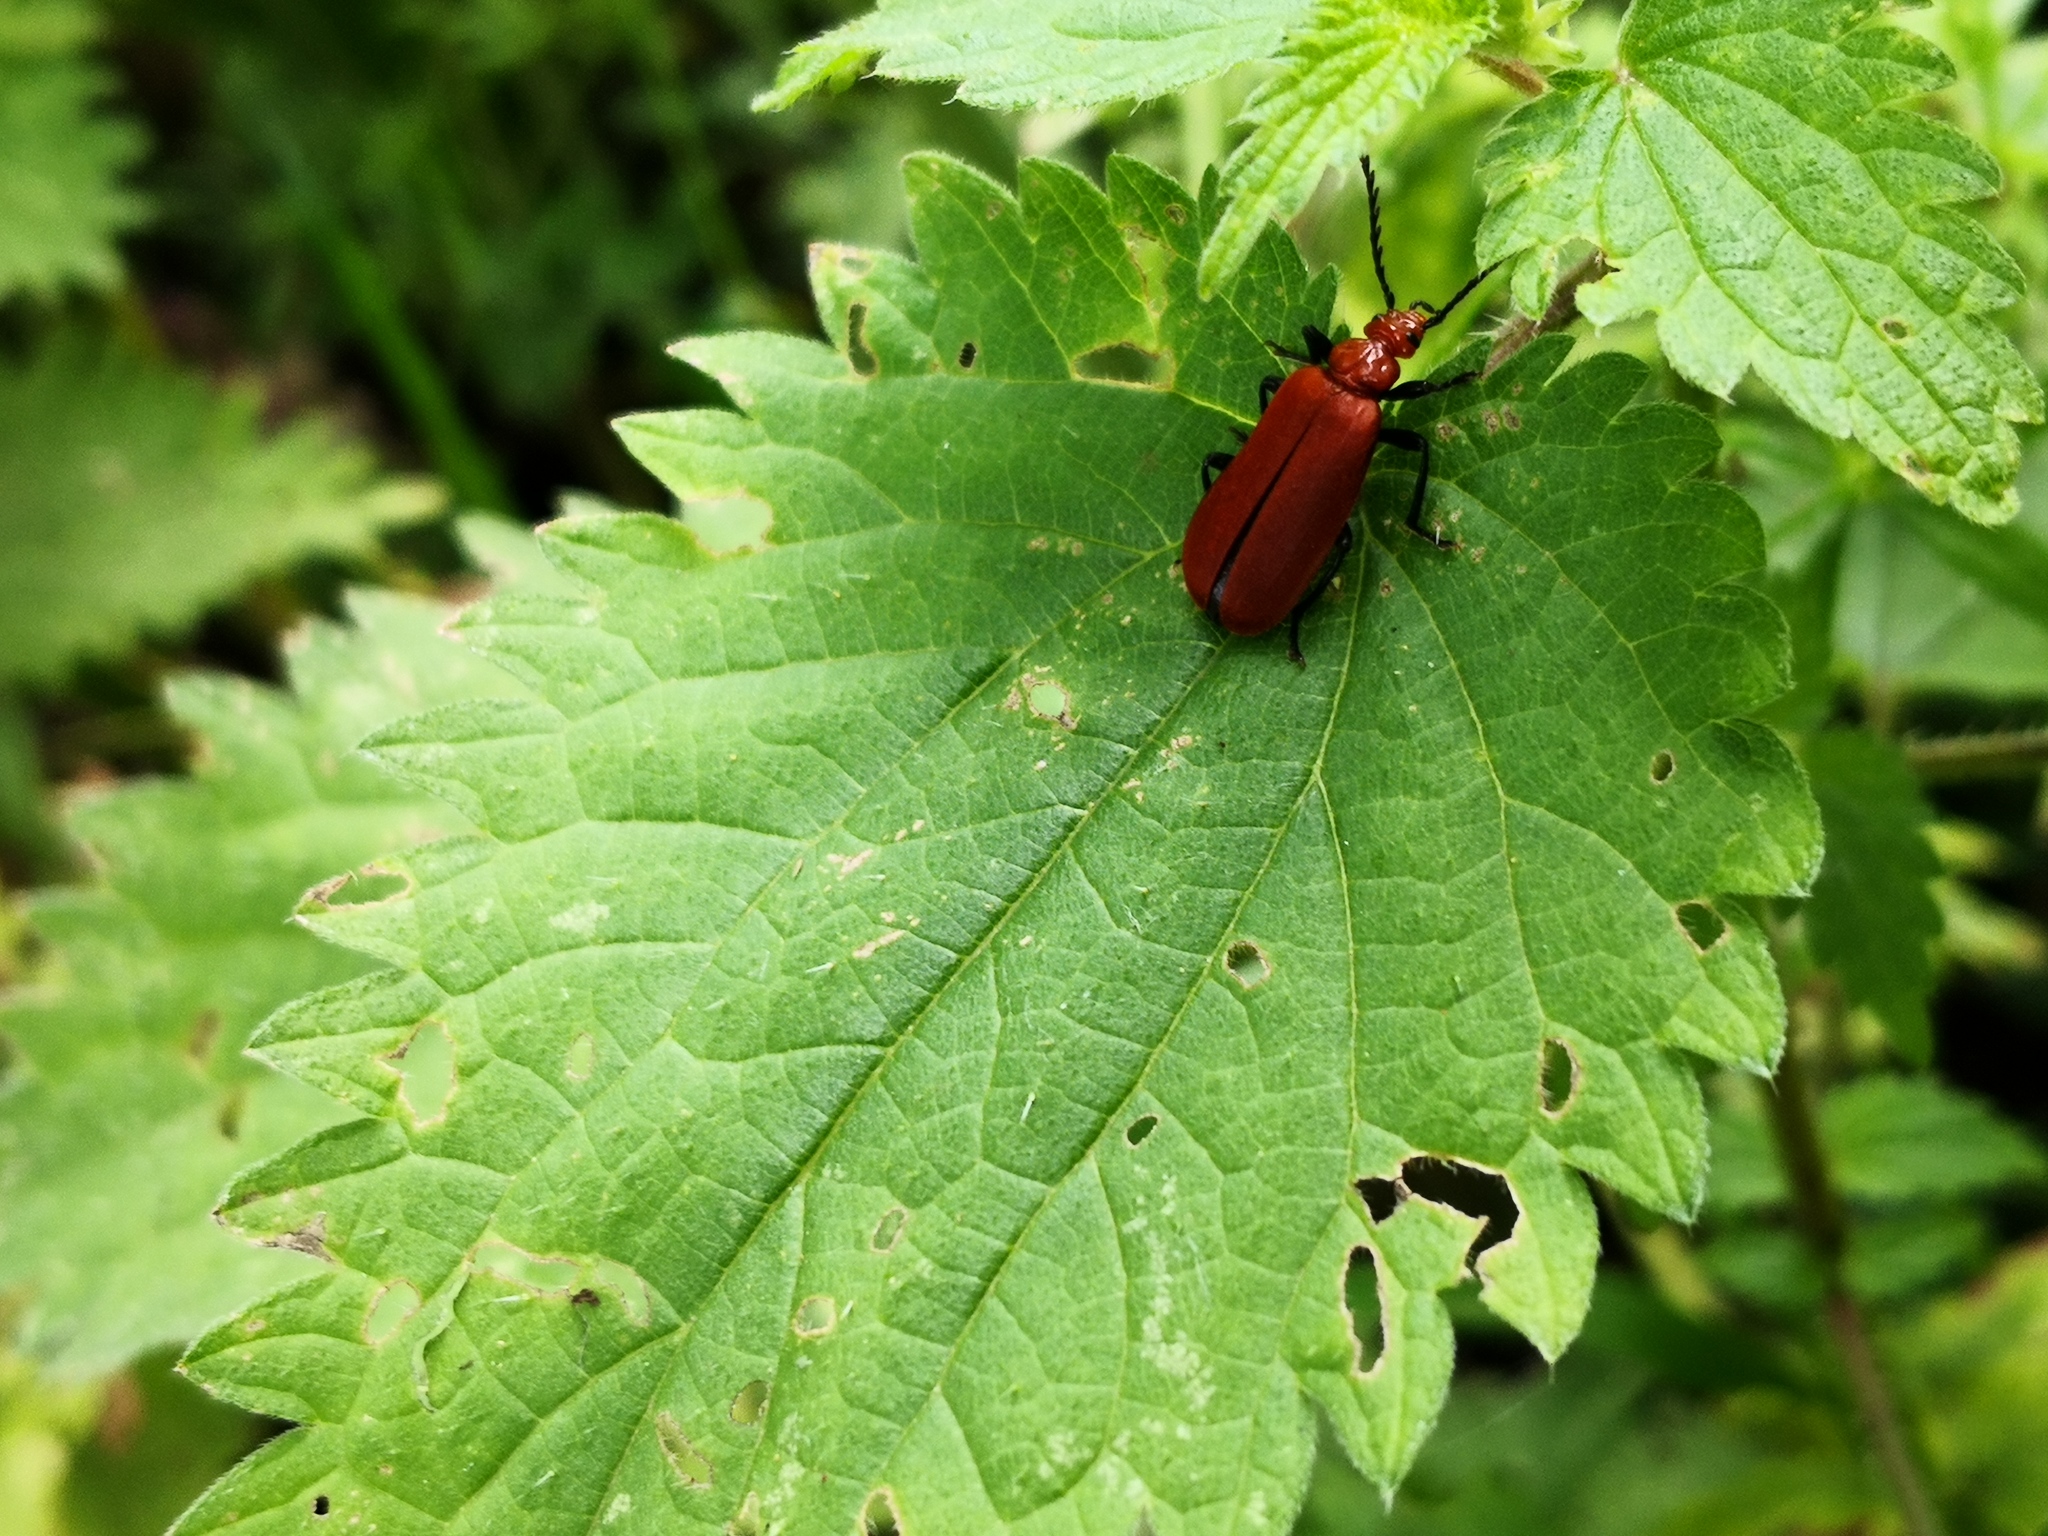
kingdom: Animalia
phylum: Arthropoda
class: Insecta
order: Coleoptera
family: Pyrochroidae
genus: Pyrochroa
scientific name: Pyrochroa serraticornis
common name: Red-headed cardinal beetle
